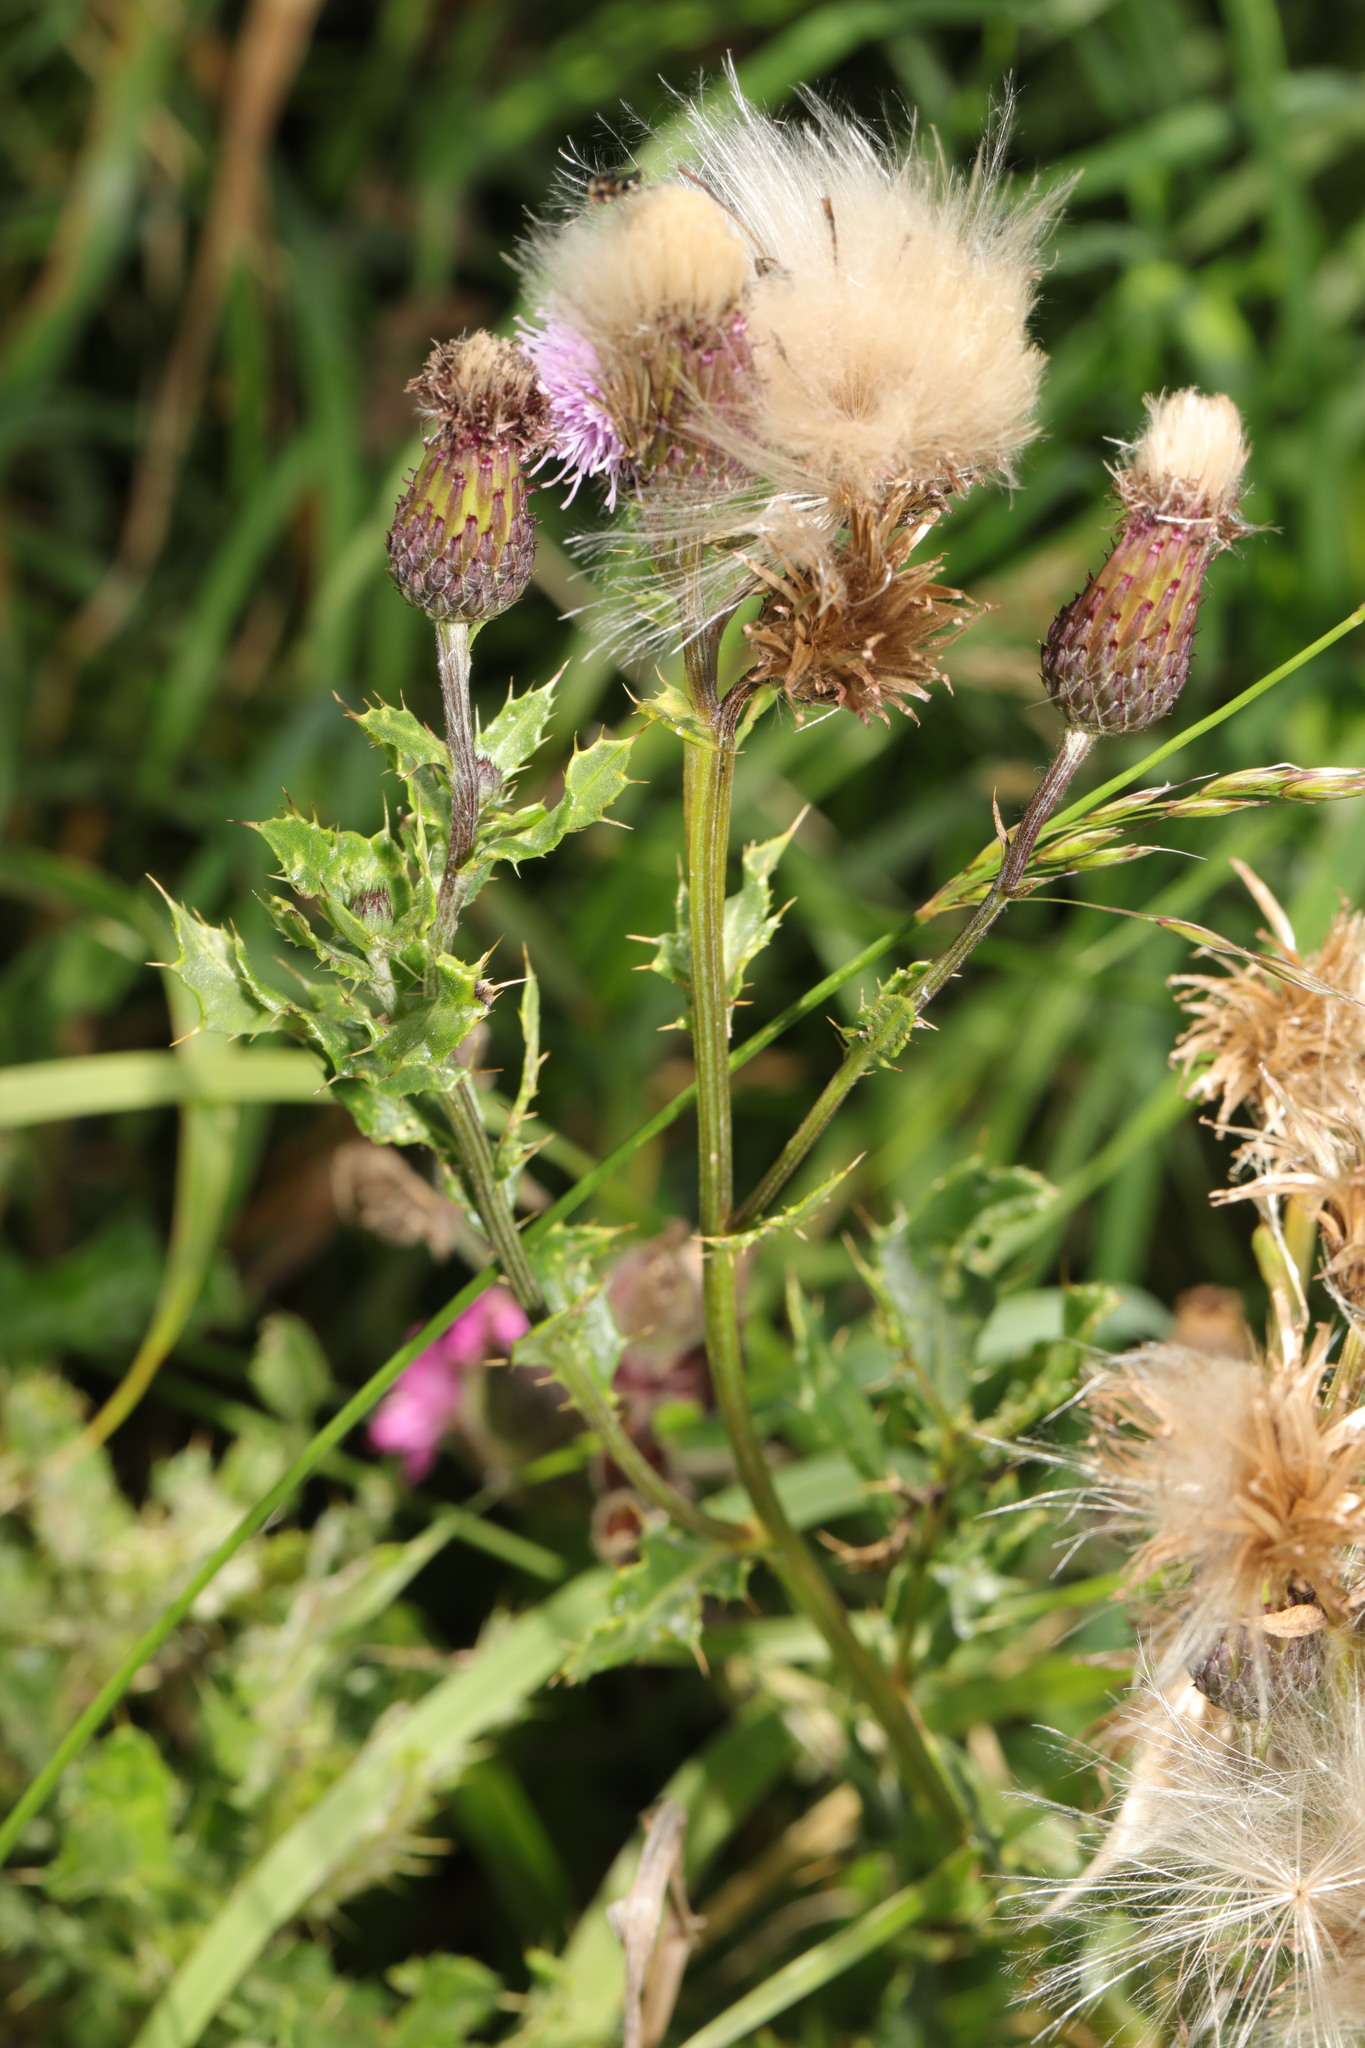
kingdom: Plantae
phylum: Tracheophyta
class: Magnoliopsida
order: Asterales
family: Asteraceae
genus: Cirsium
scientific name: Cirsium arvense
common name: Creeping thistle
